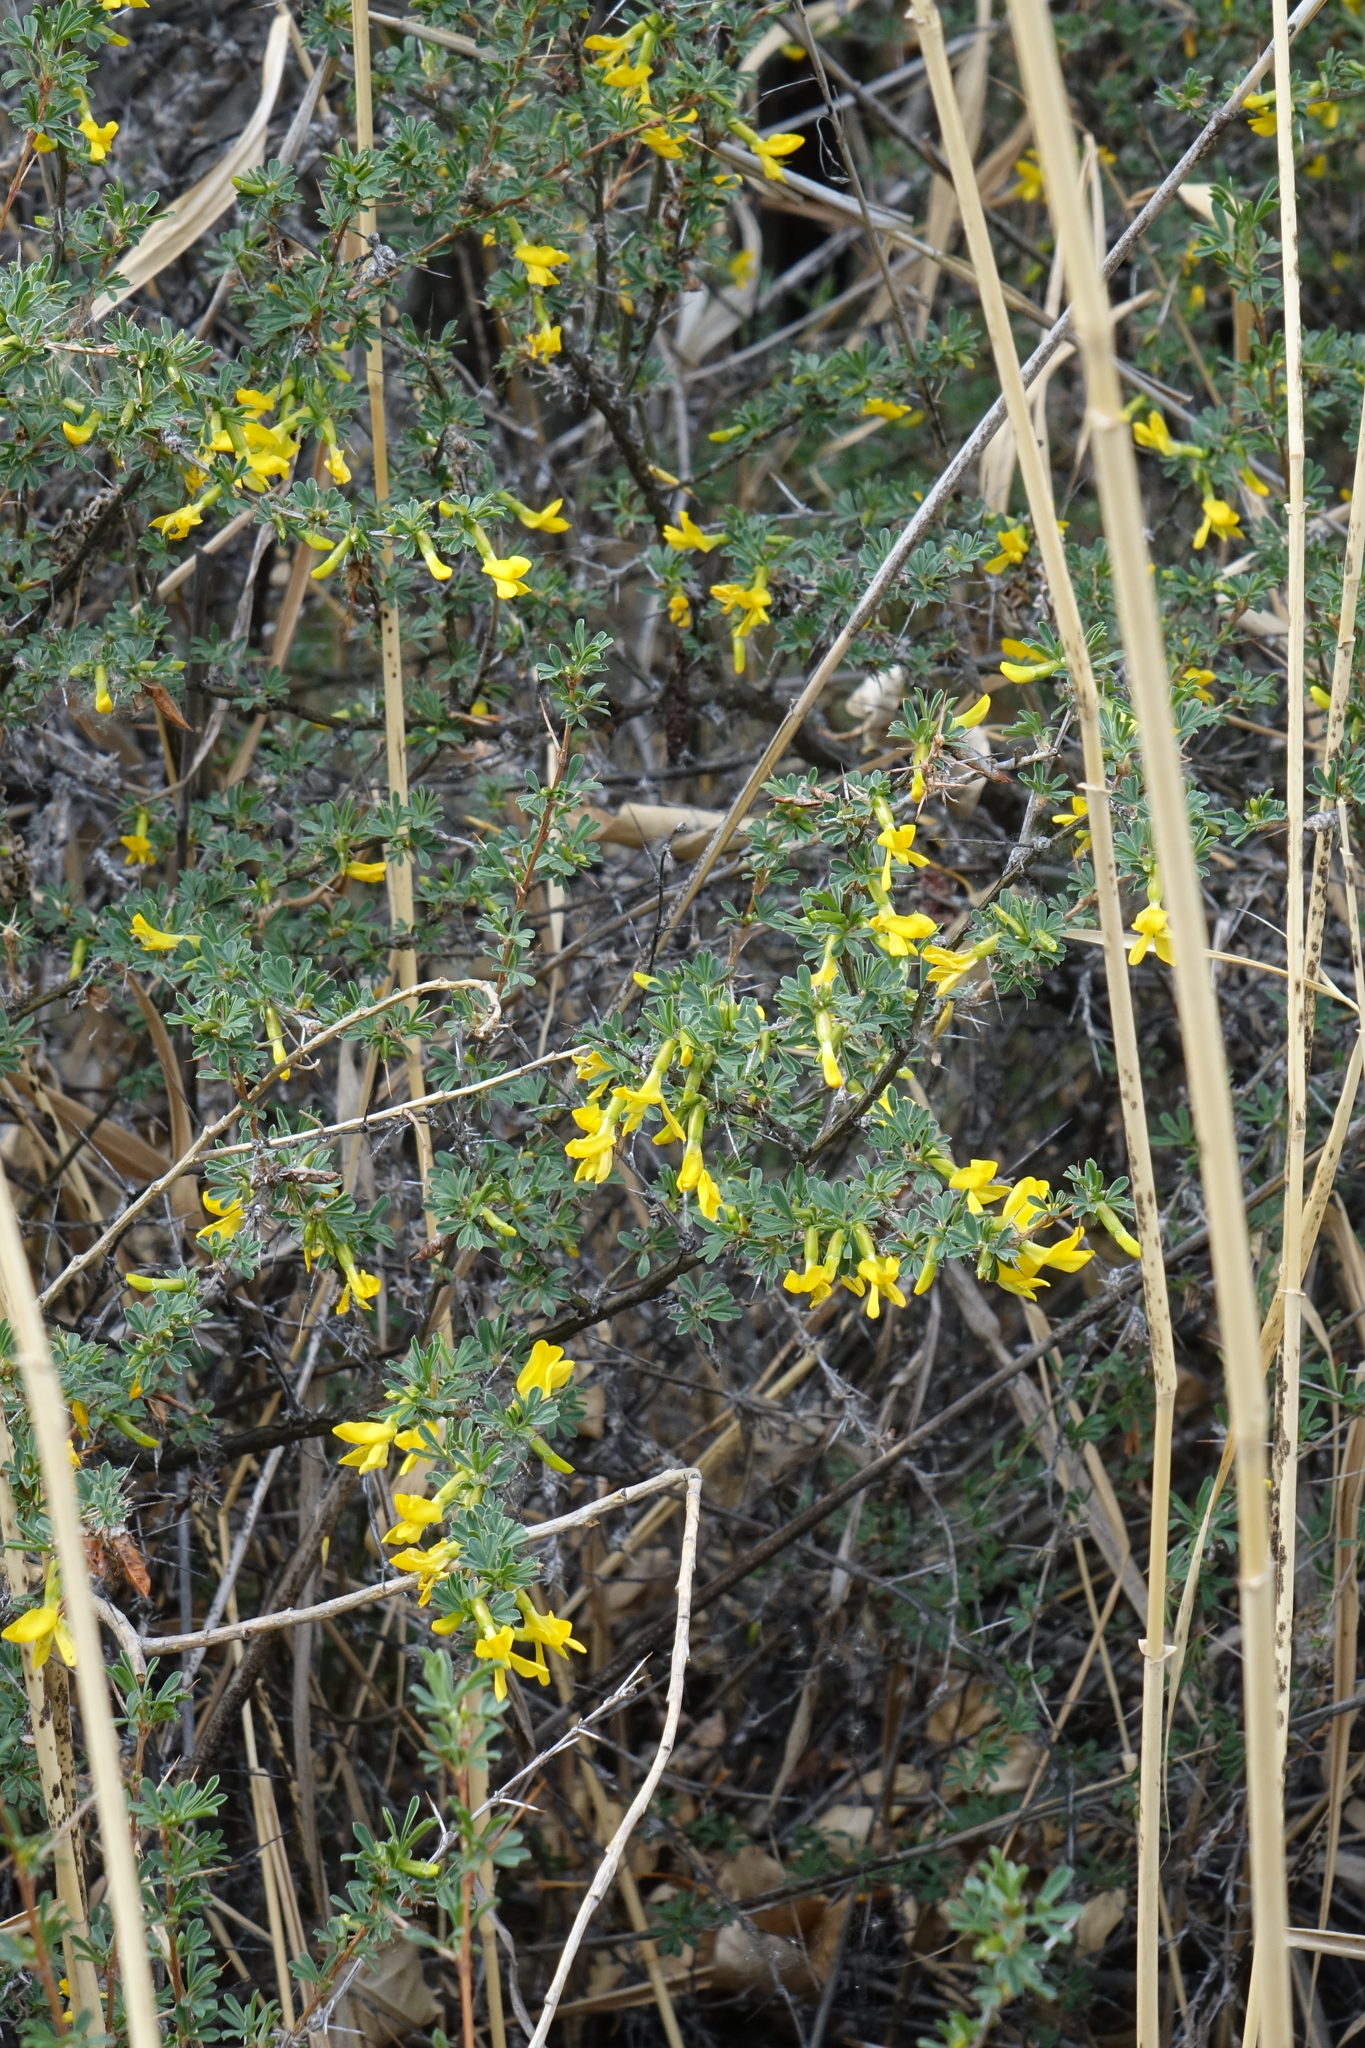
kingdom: Plantae
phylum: Tracheophyta
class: Magnoliopsida
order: Fabales
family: Fabaceae
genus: Caragana
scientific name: Caragana spinosa
